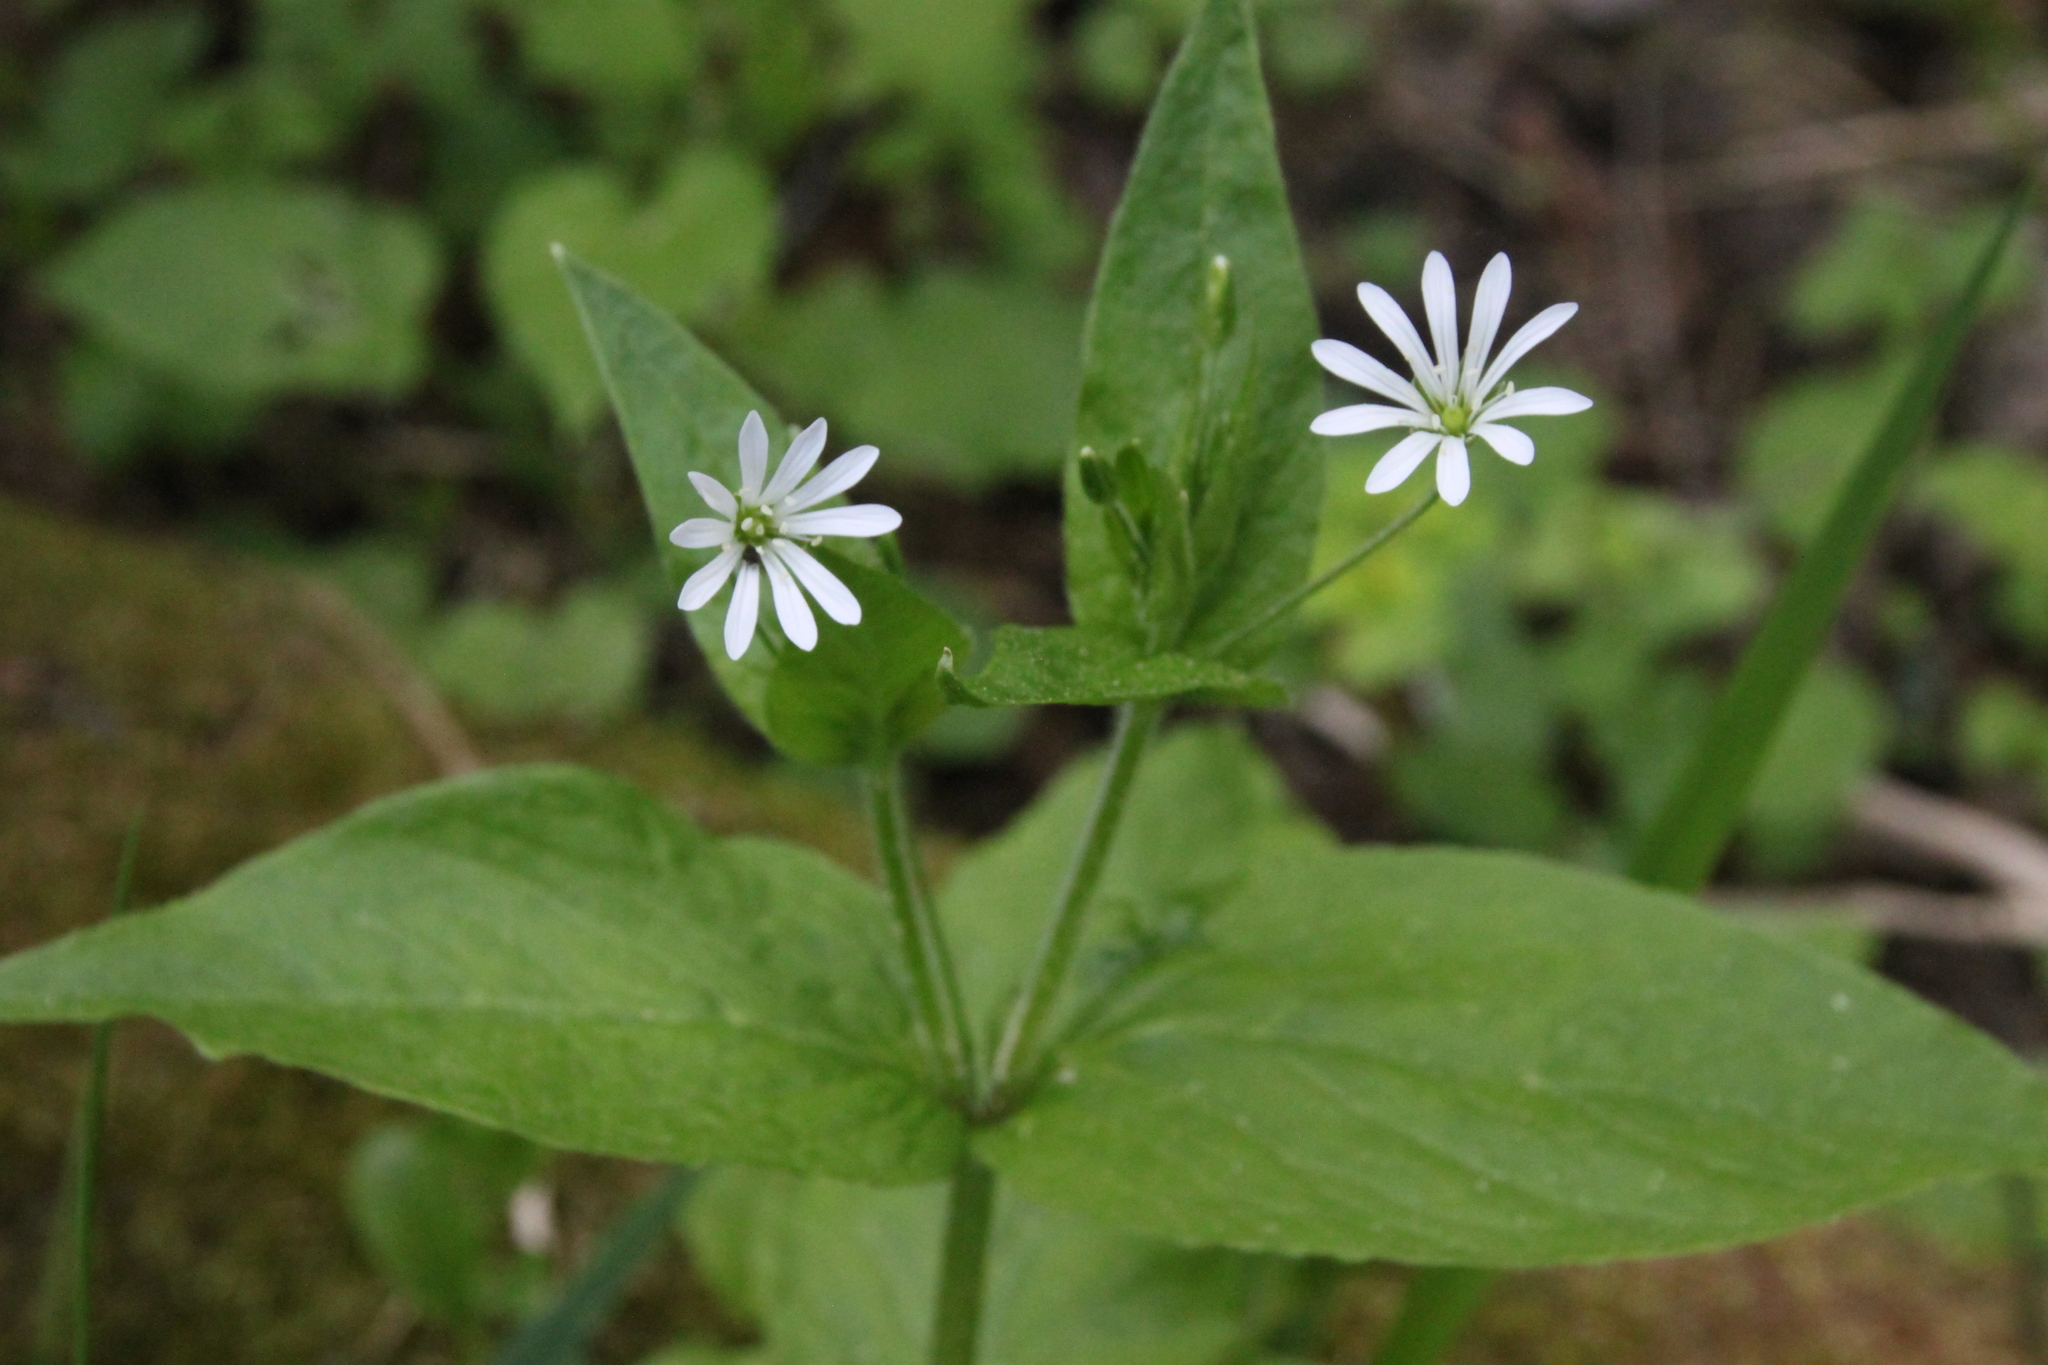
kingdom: Plantae
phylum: Tracheophyta
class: Magnoliopsida
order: Caryophyllales
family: Caryophyllaceae
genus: Stellaria
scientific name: Stellaria nemorum
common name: Wood stitchwort
